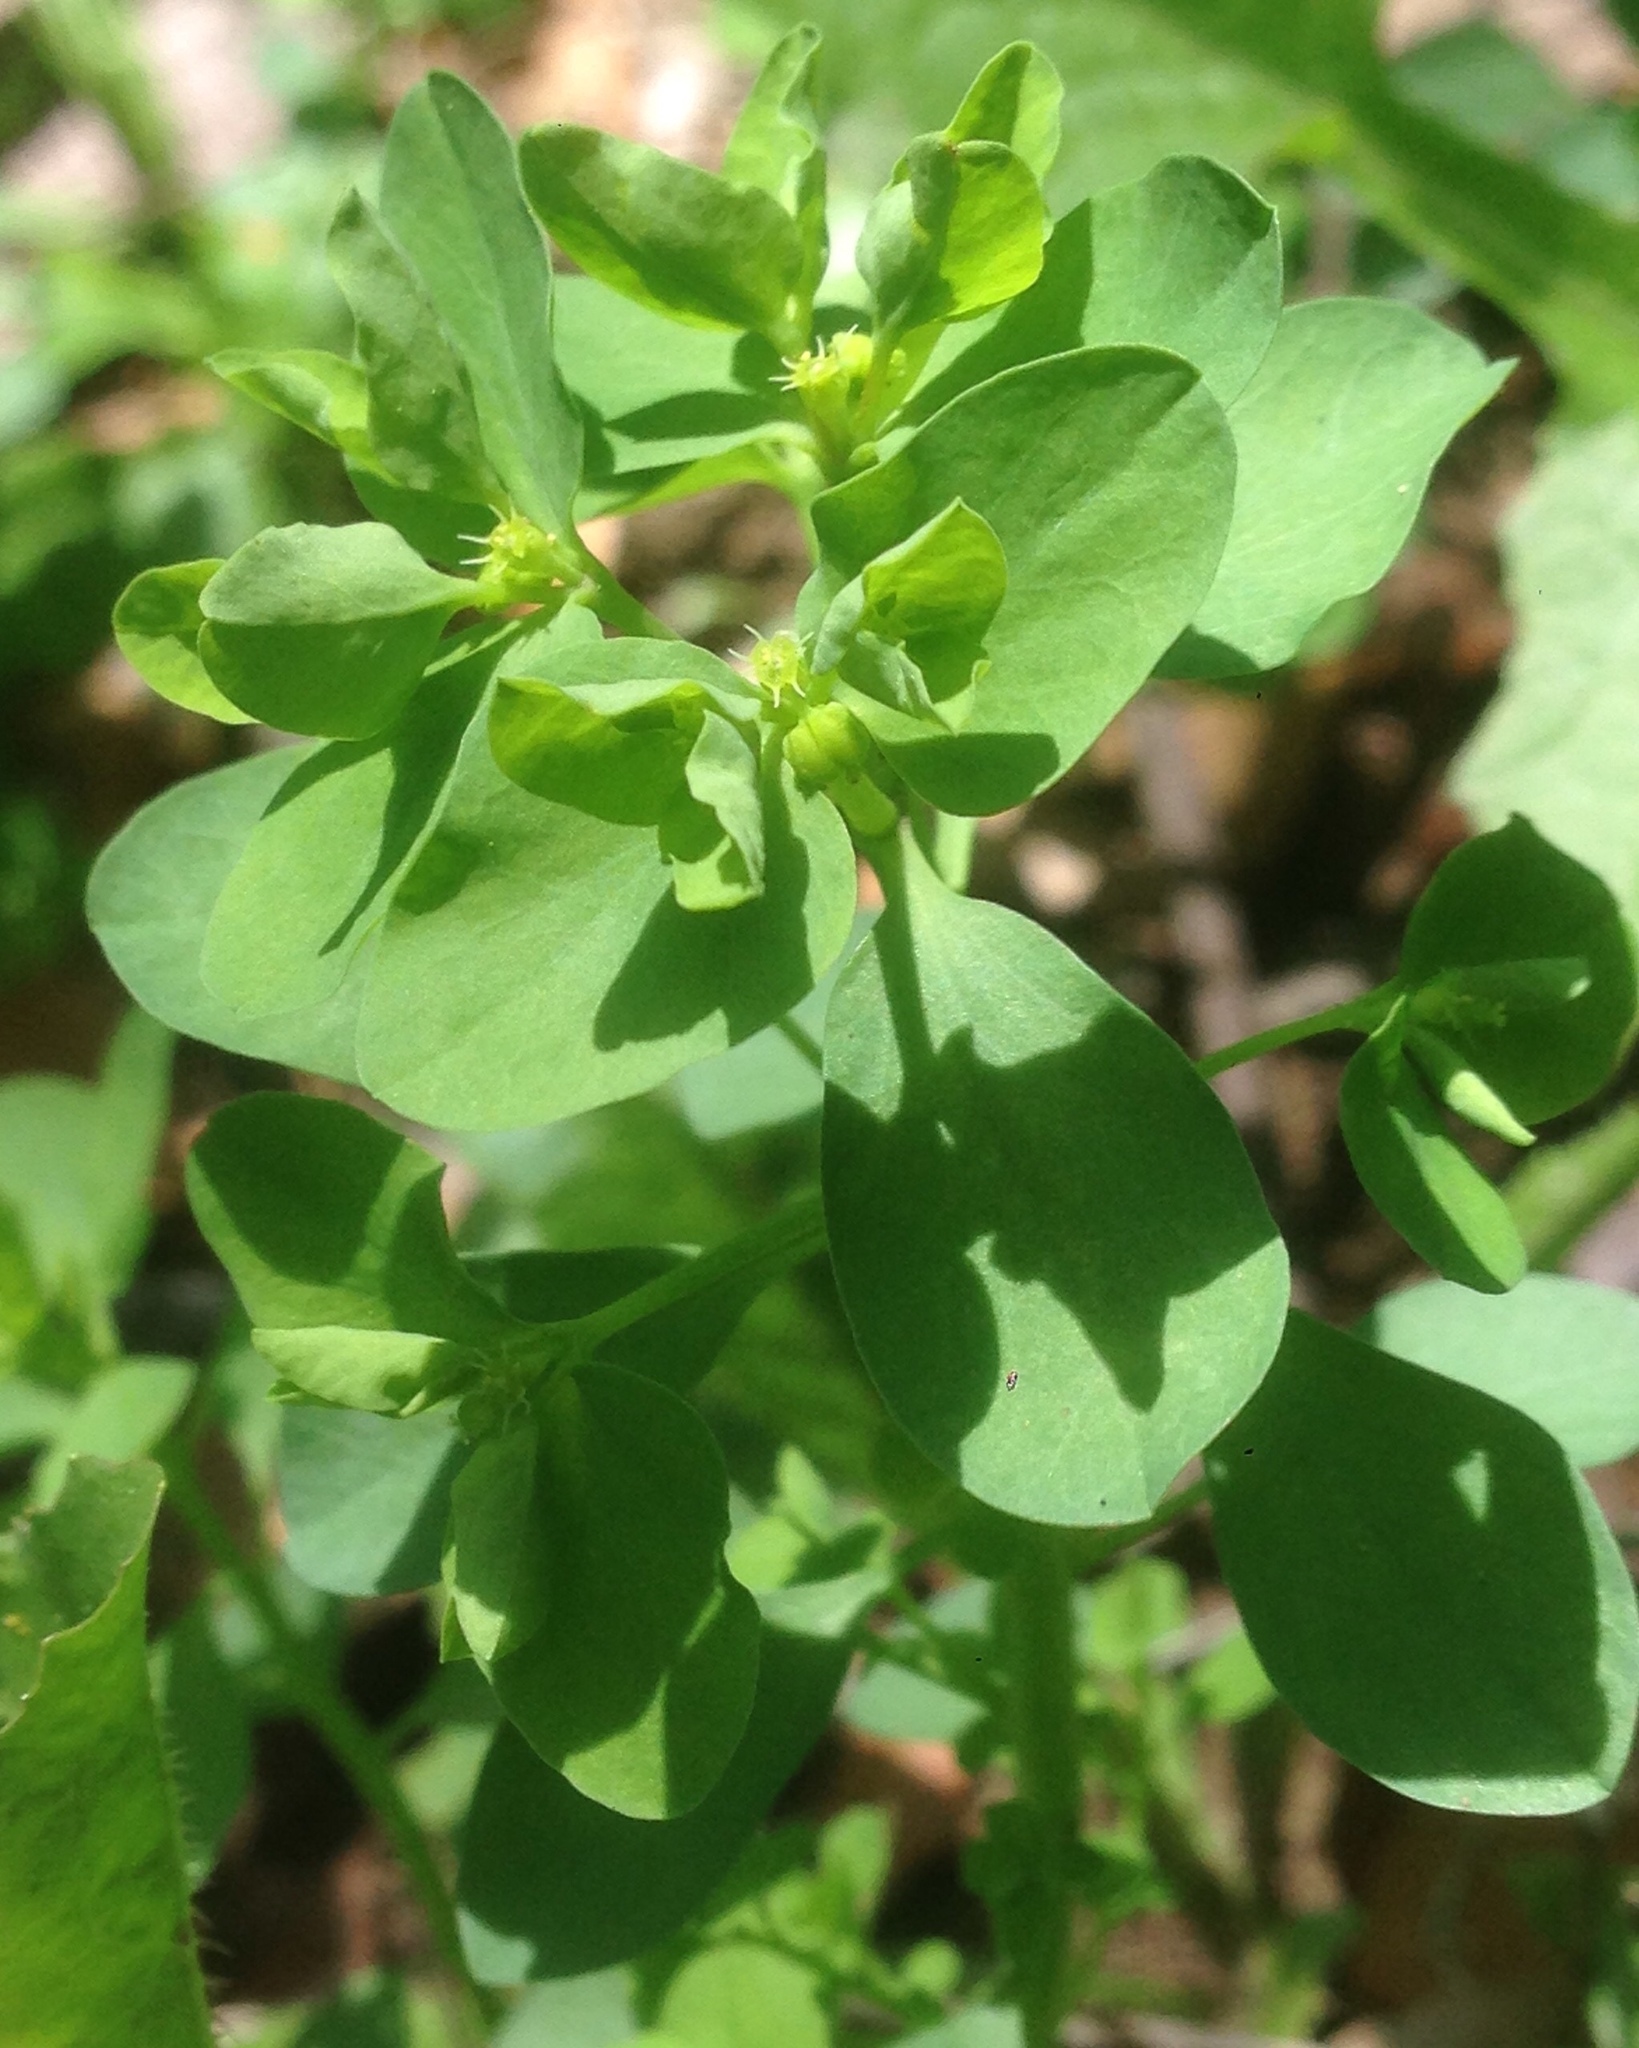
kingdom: Plantae
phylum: Tracheophyta
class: Magnoliopsida
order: Malpighiales
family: Euphorbiaceae
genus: Euphorbia
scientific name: Euphorbia peplus
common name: Petty spurge
